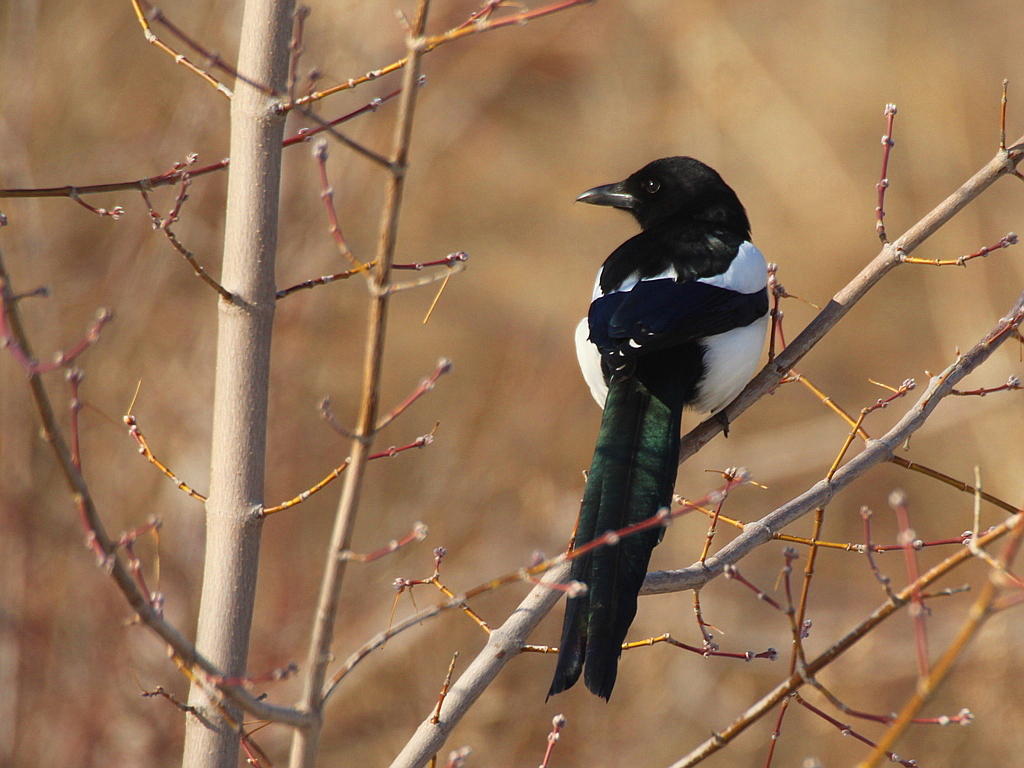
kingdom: Animalia
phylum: Chordata
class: Aves
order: Passeriformes
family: Corvidae
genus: Pica
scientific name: Pica pica
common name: Eurasian magpie
